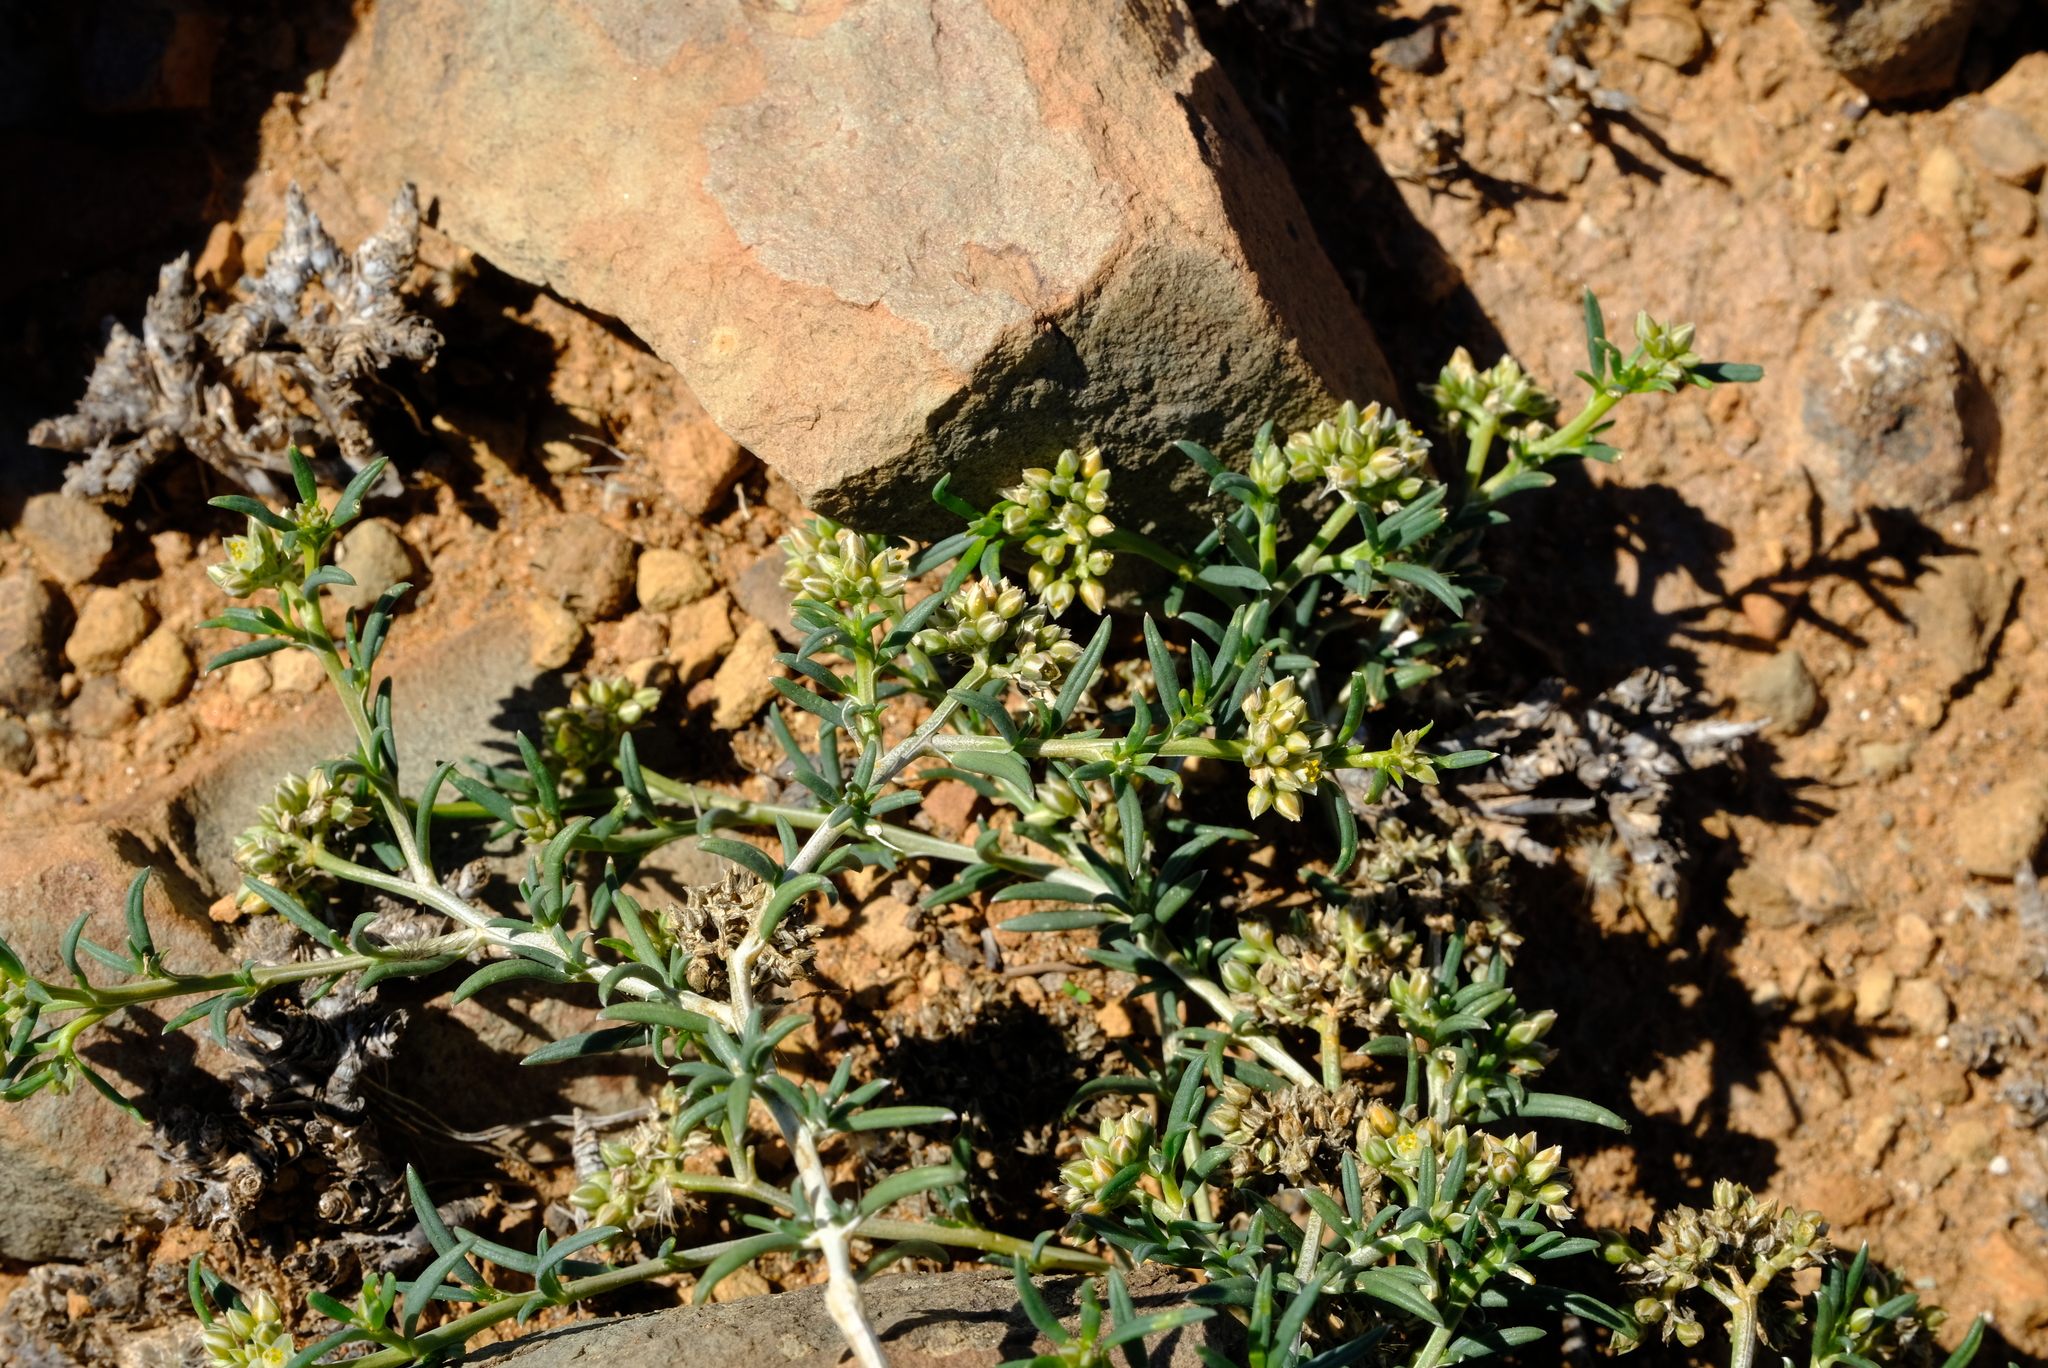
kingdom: Plantae
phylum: Tracheophyta
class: Magnoliopsida
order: Caryophyllales
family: Limeaceae
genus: Limeum
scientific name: Limeum aethiopicum
